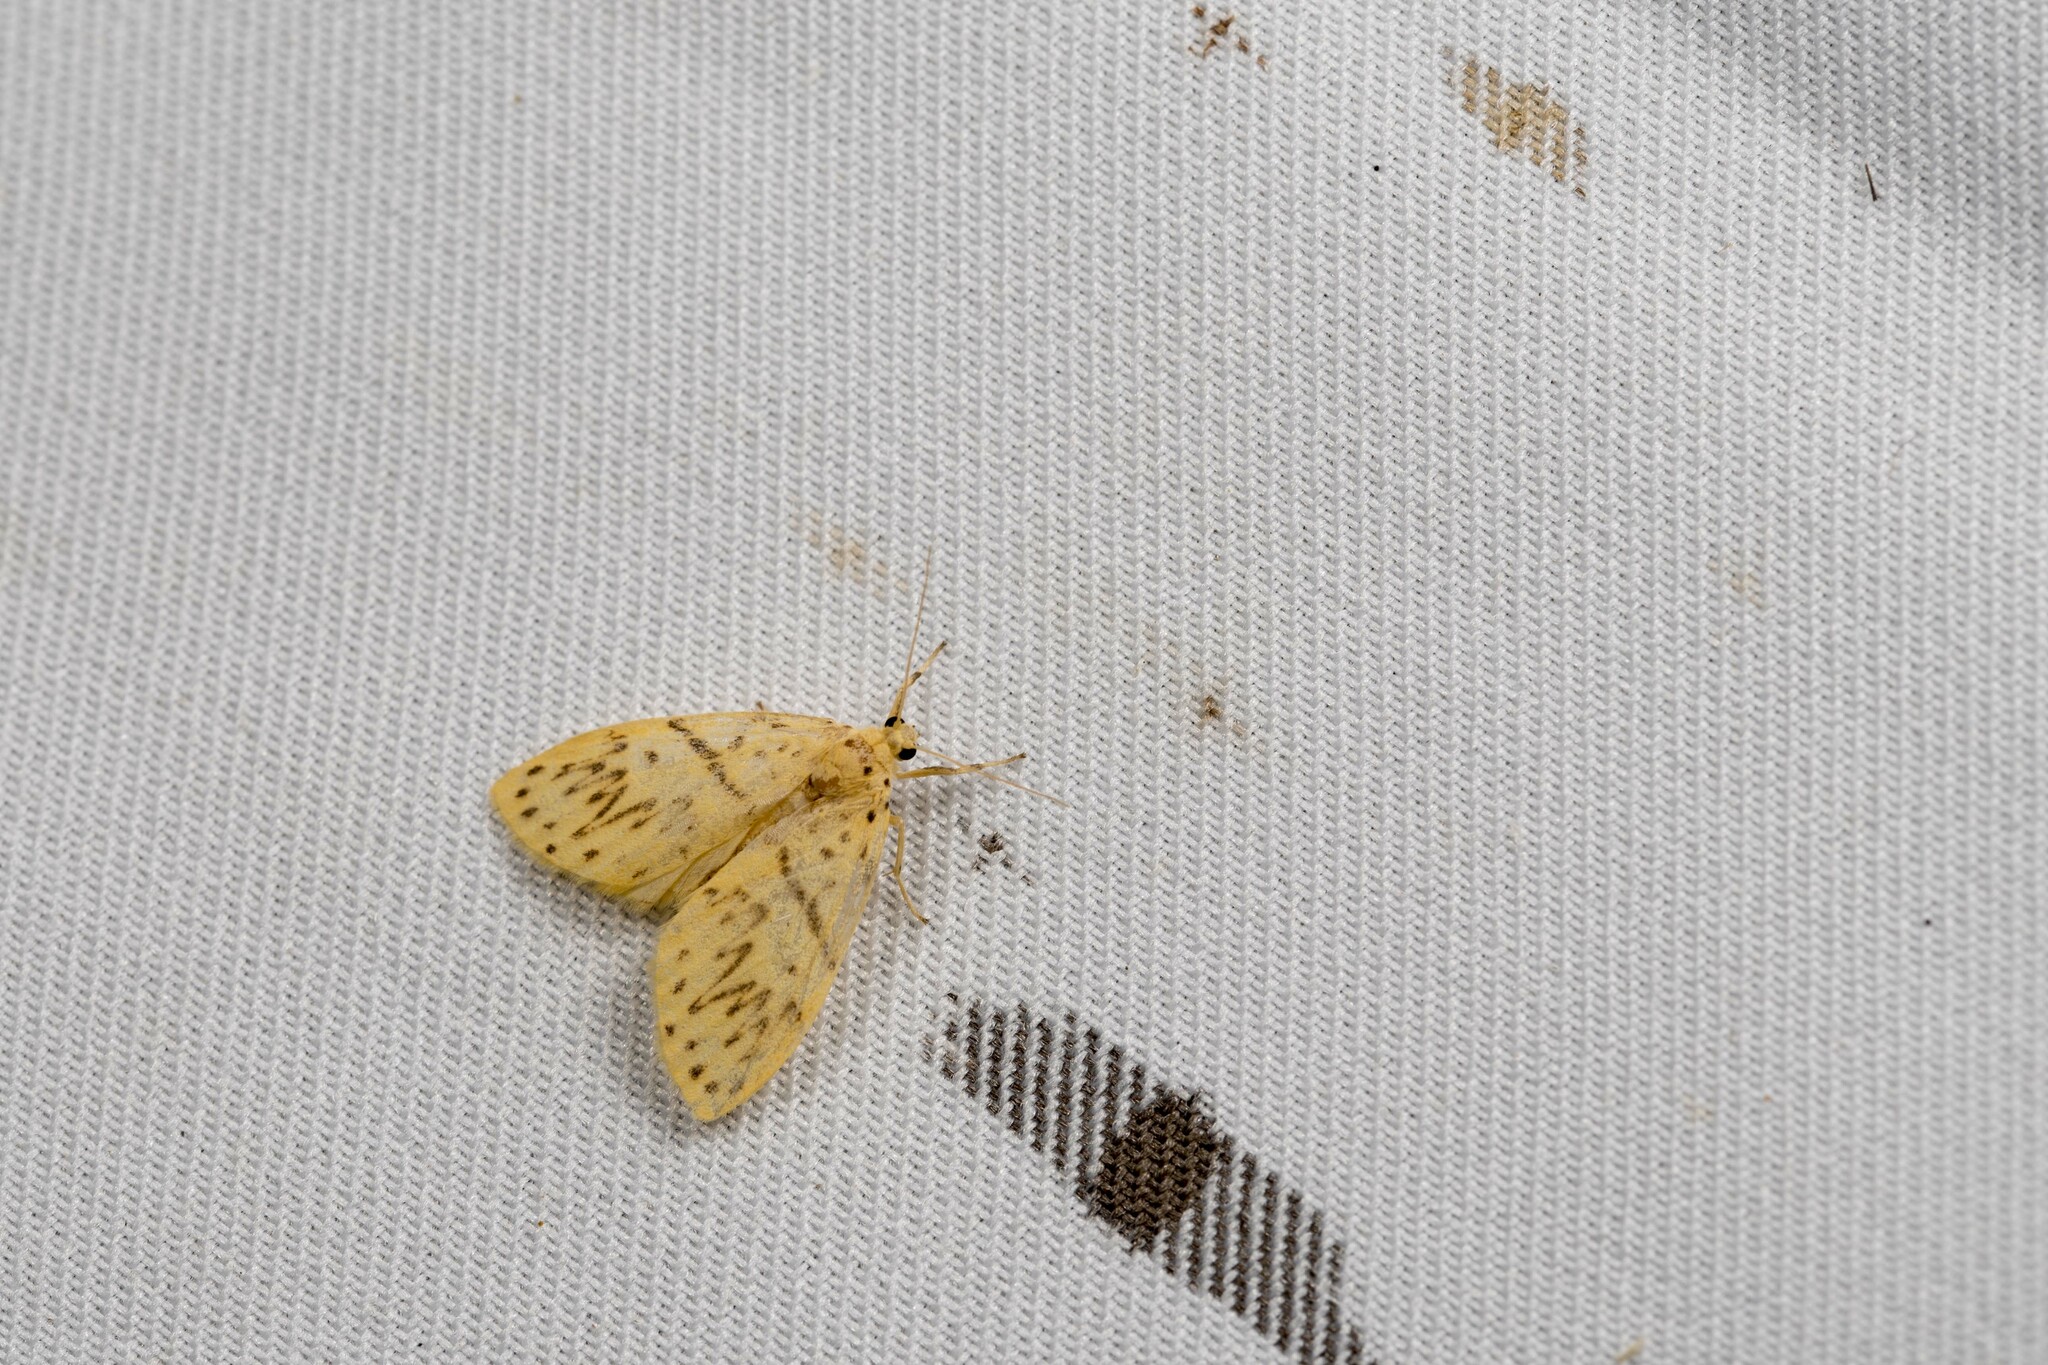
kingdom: Animalia
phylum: Arthropoda
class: Insecta
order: Lepidoptera
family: Erebidae
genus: Huangilene
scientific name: Huangilene alikangiae
